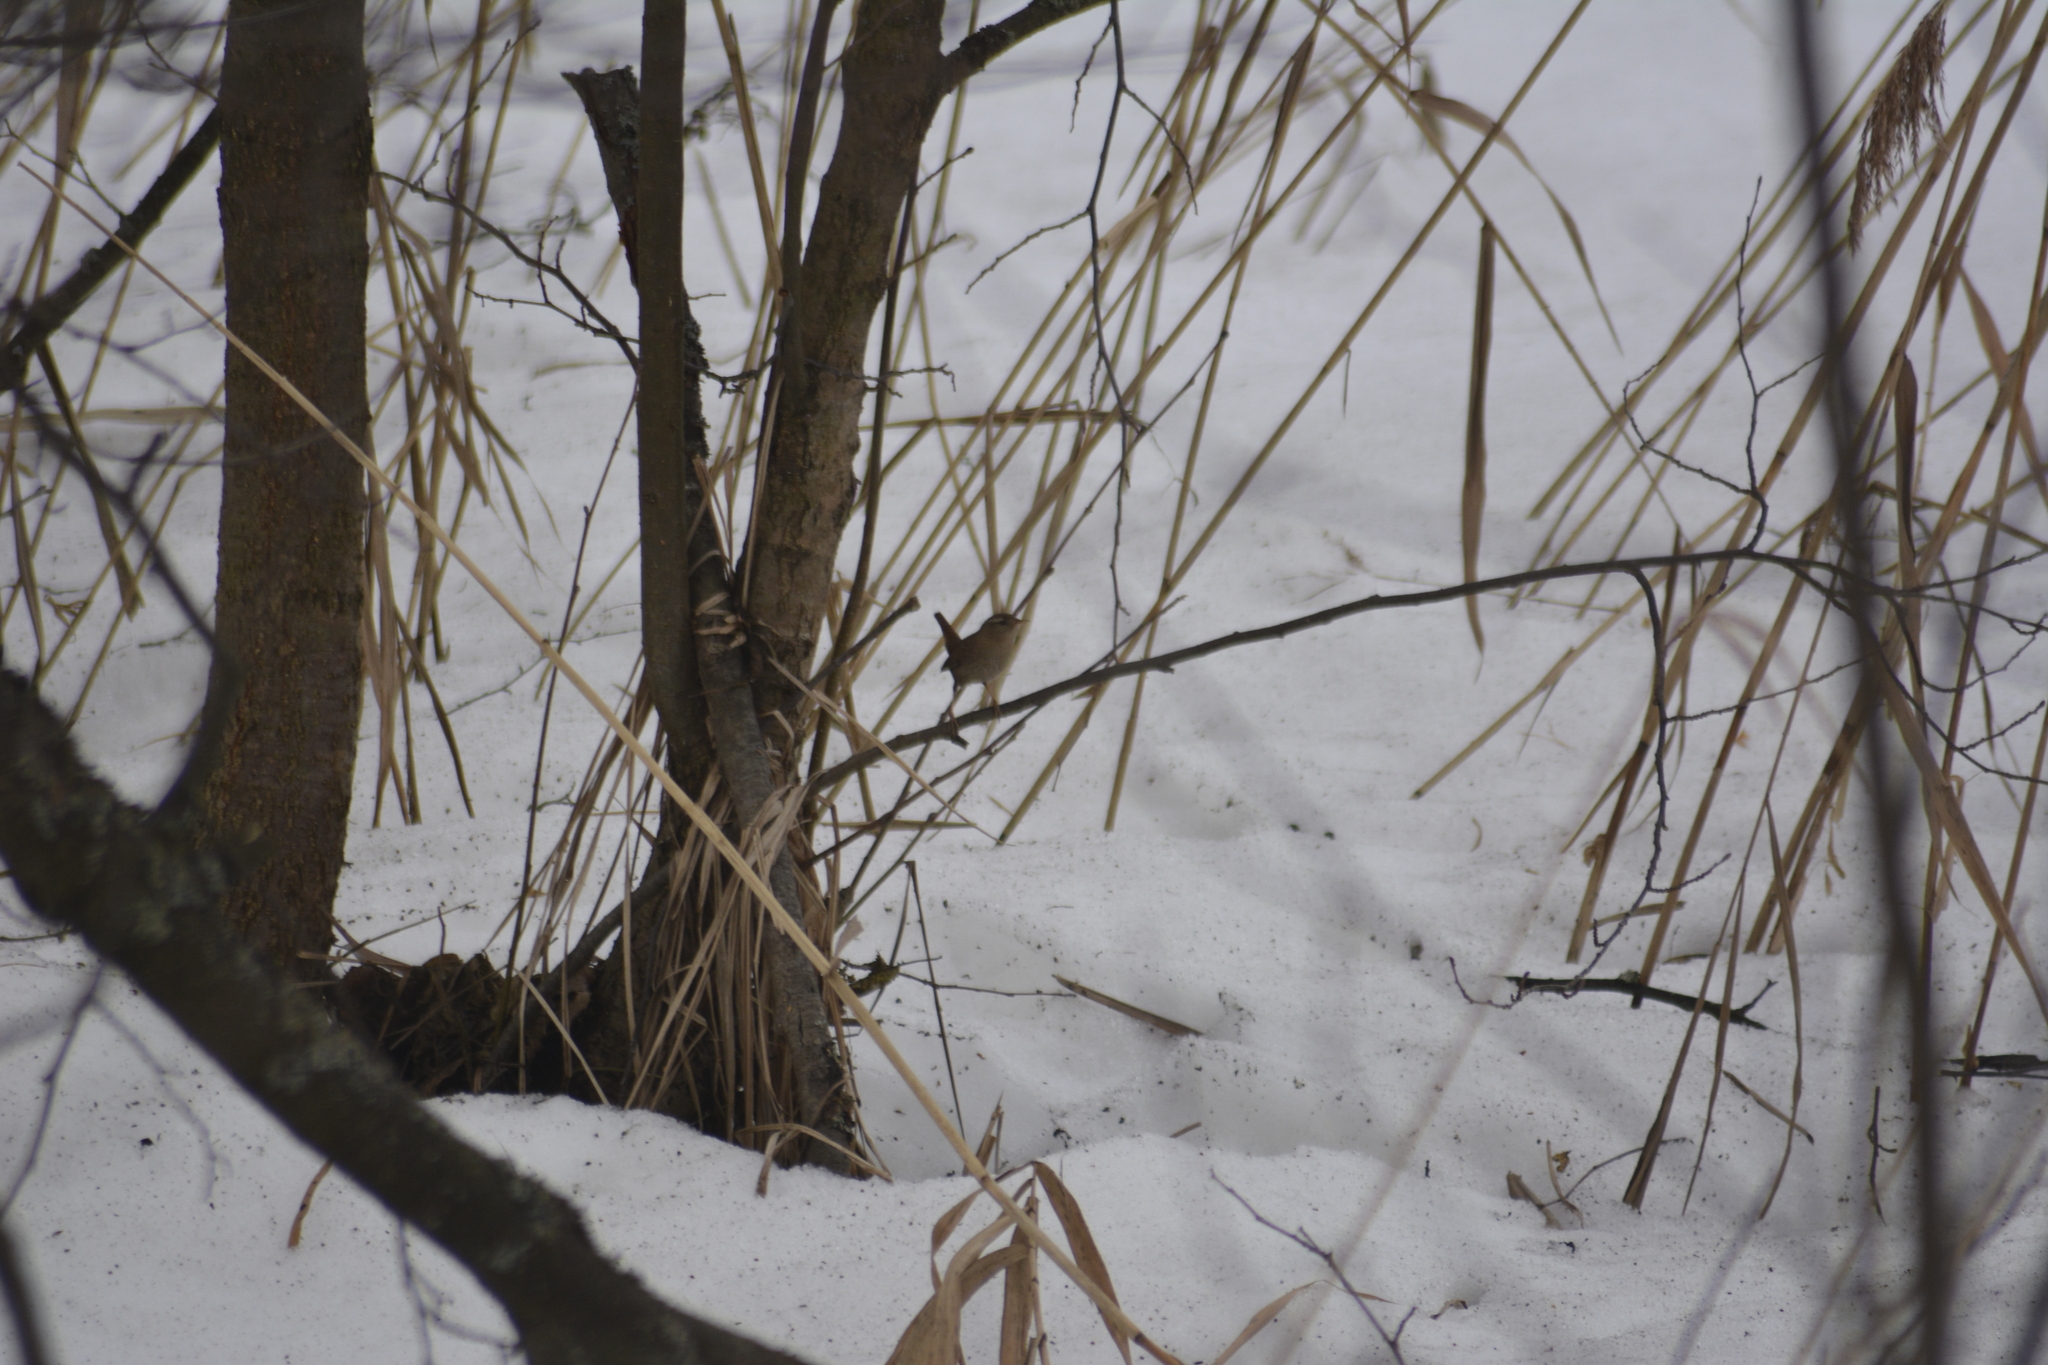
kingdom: Animalia
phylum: Chordata
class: Aves
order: Passeriformes
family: Troglodytidae
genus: Troglodytes
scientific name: Troglodytes troglodytes
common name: Eurasian wren
